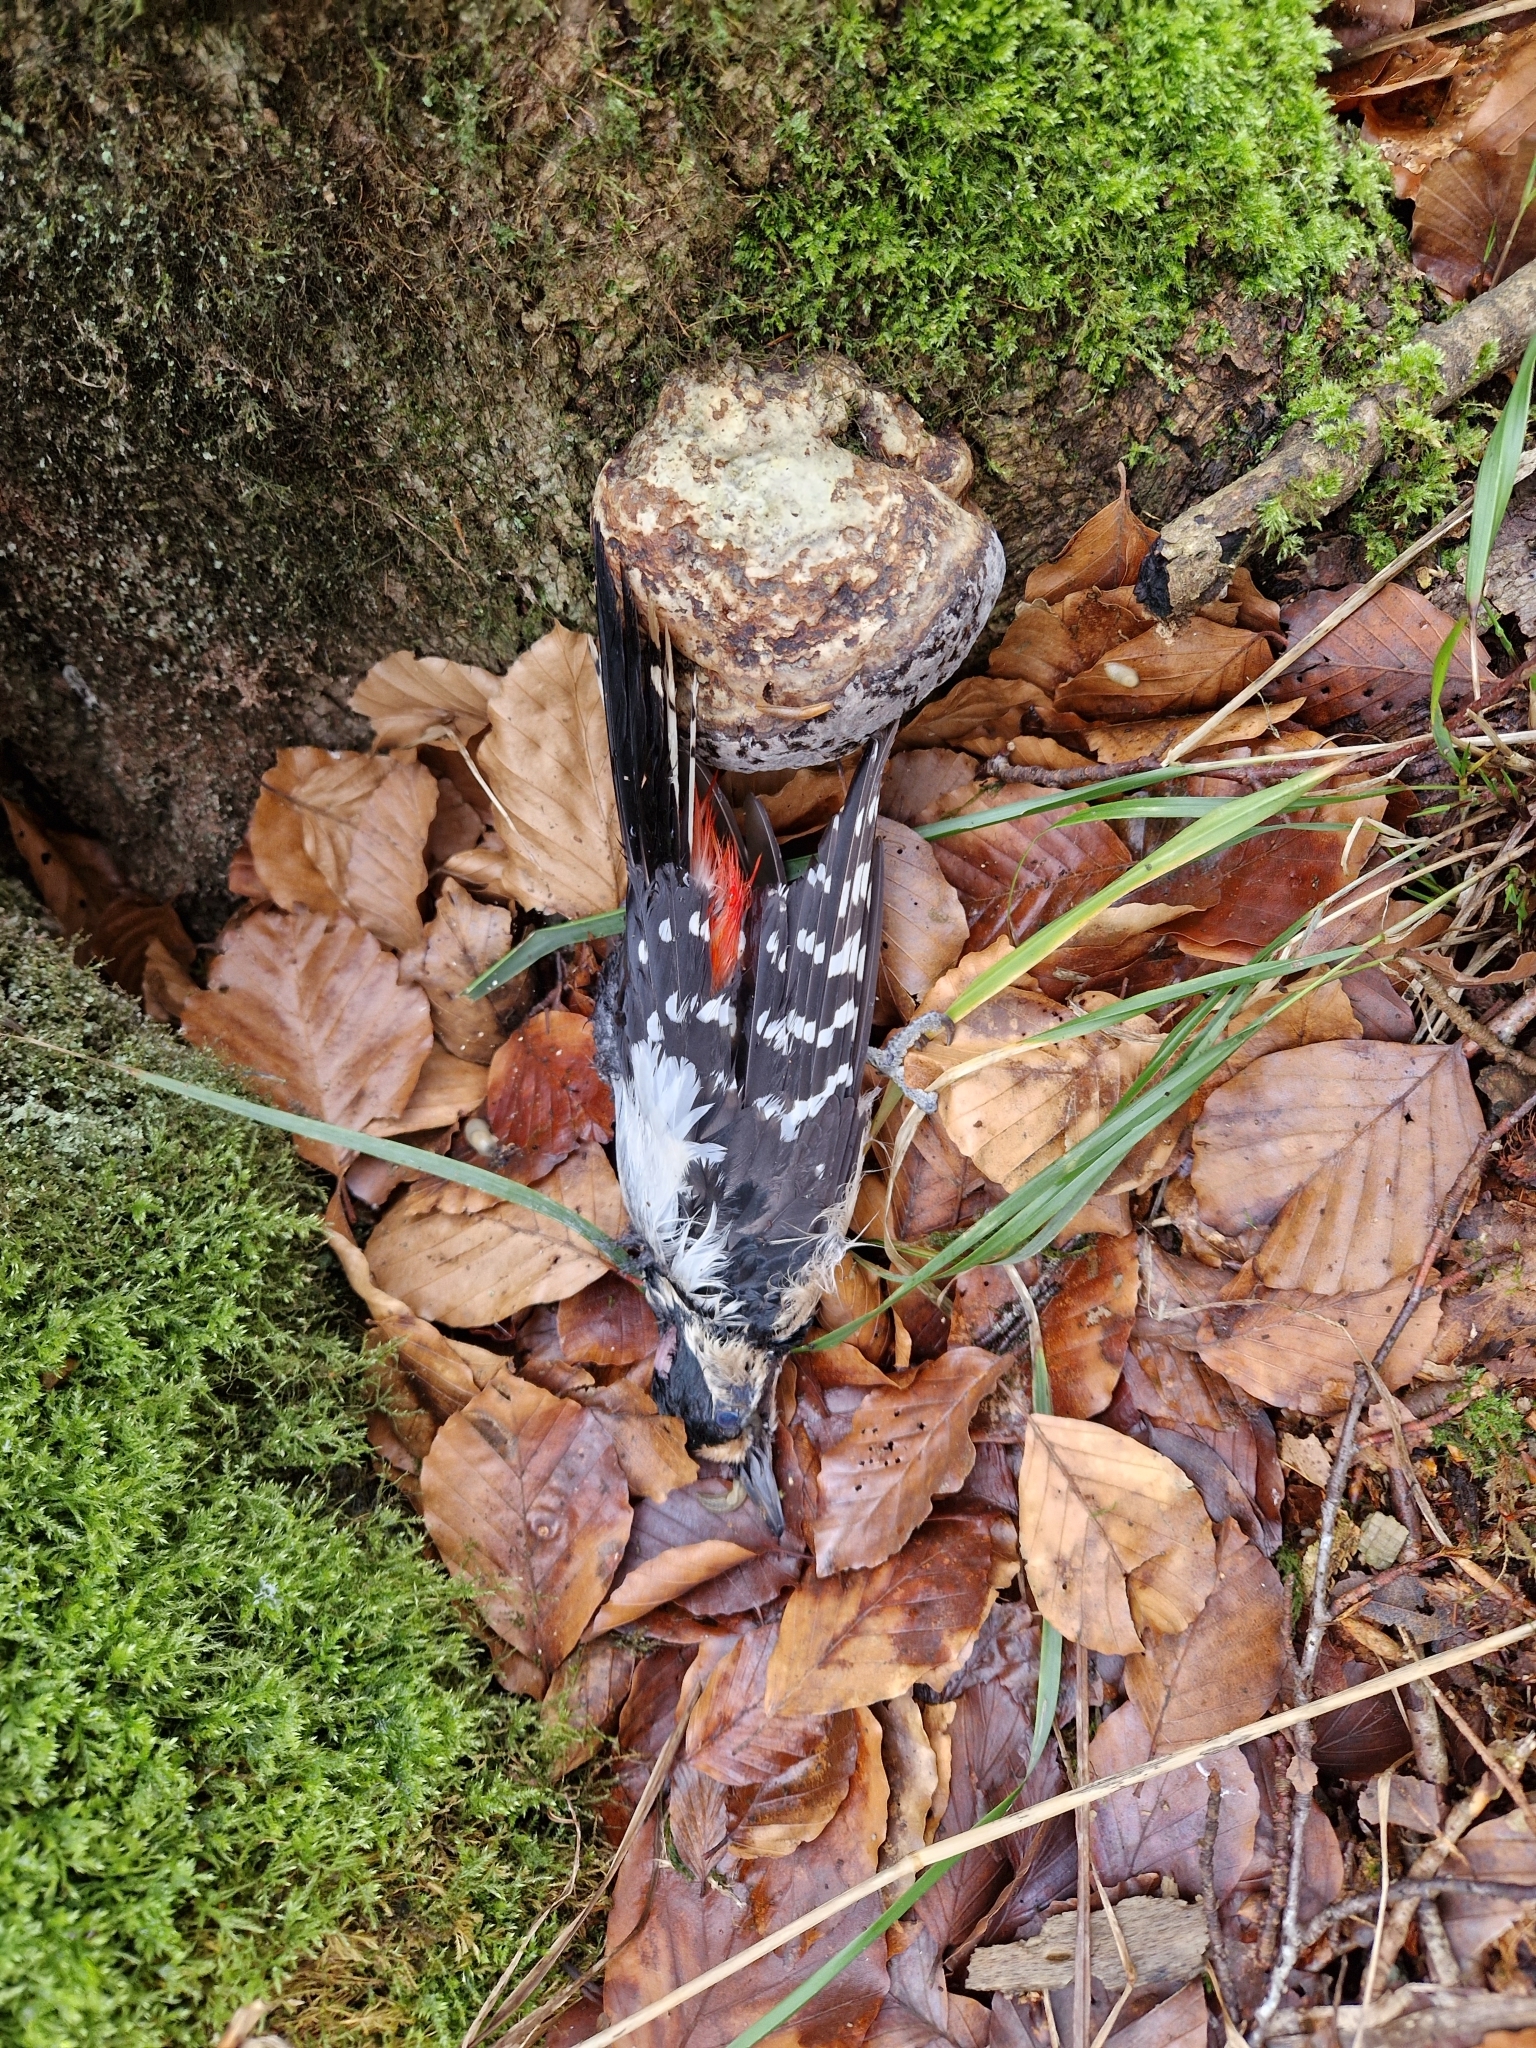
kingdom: Animalia
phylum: Chordata
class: Aves
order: Piciformes
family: Picidae
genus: Dendrocopos
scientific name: Dendrocopos major
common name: Great spotted woodpecker
